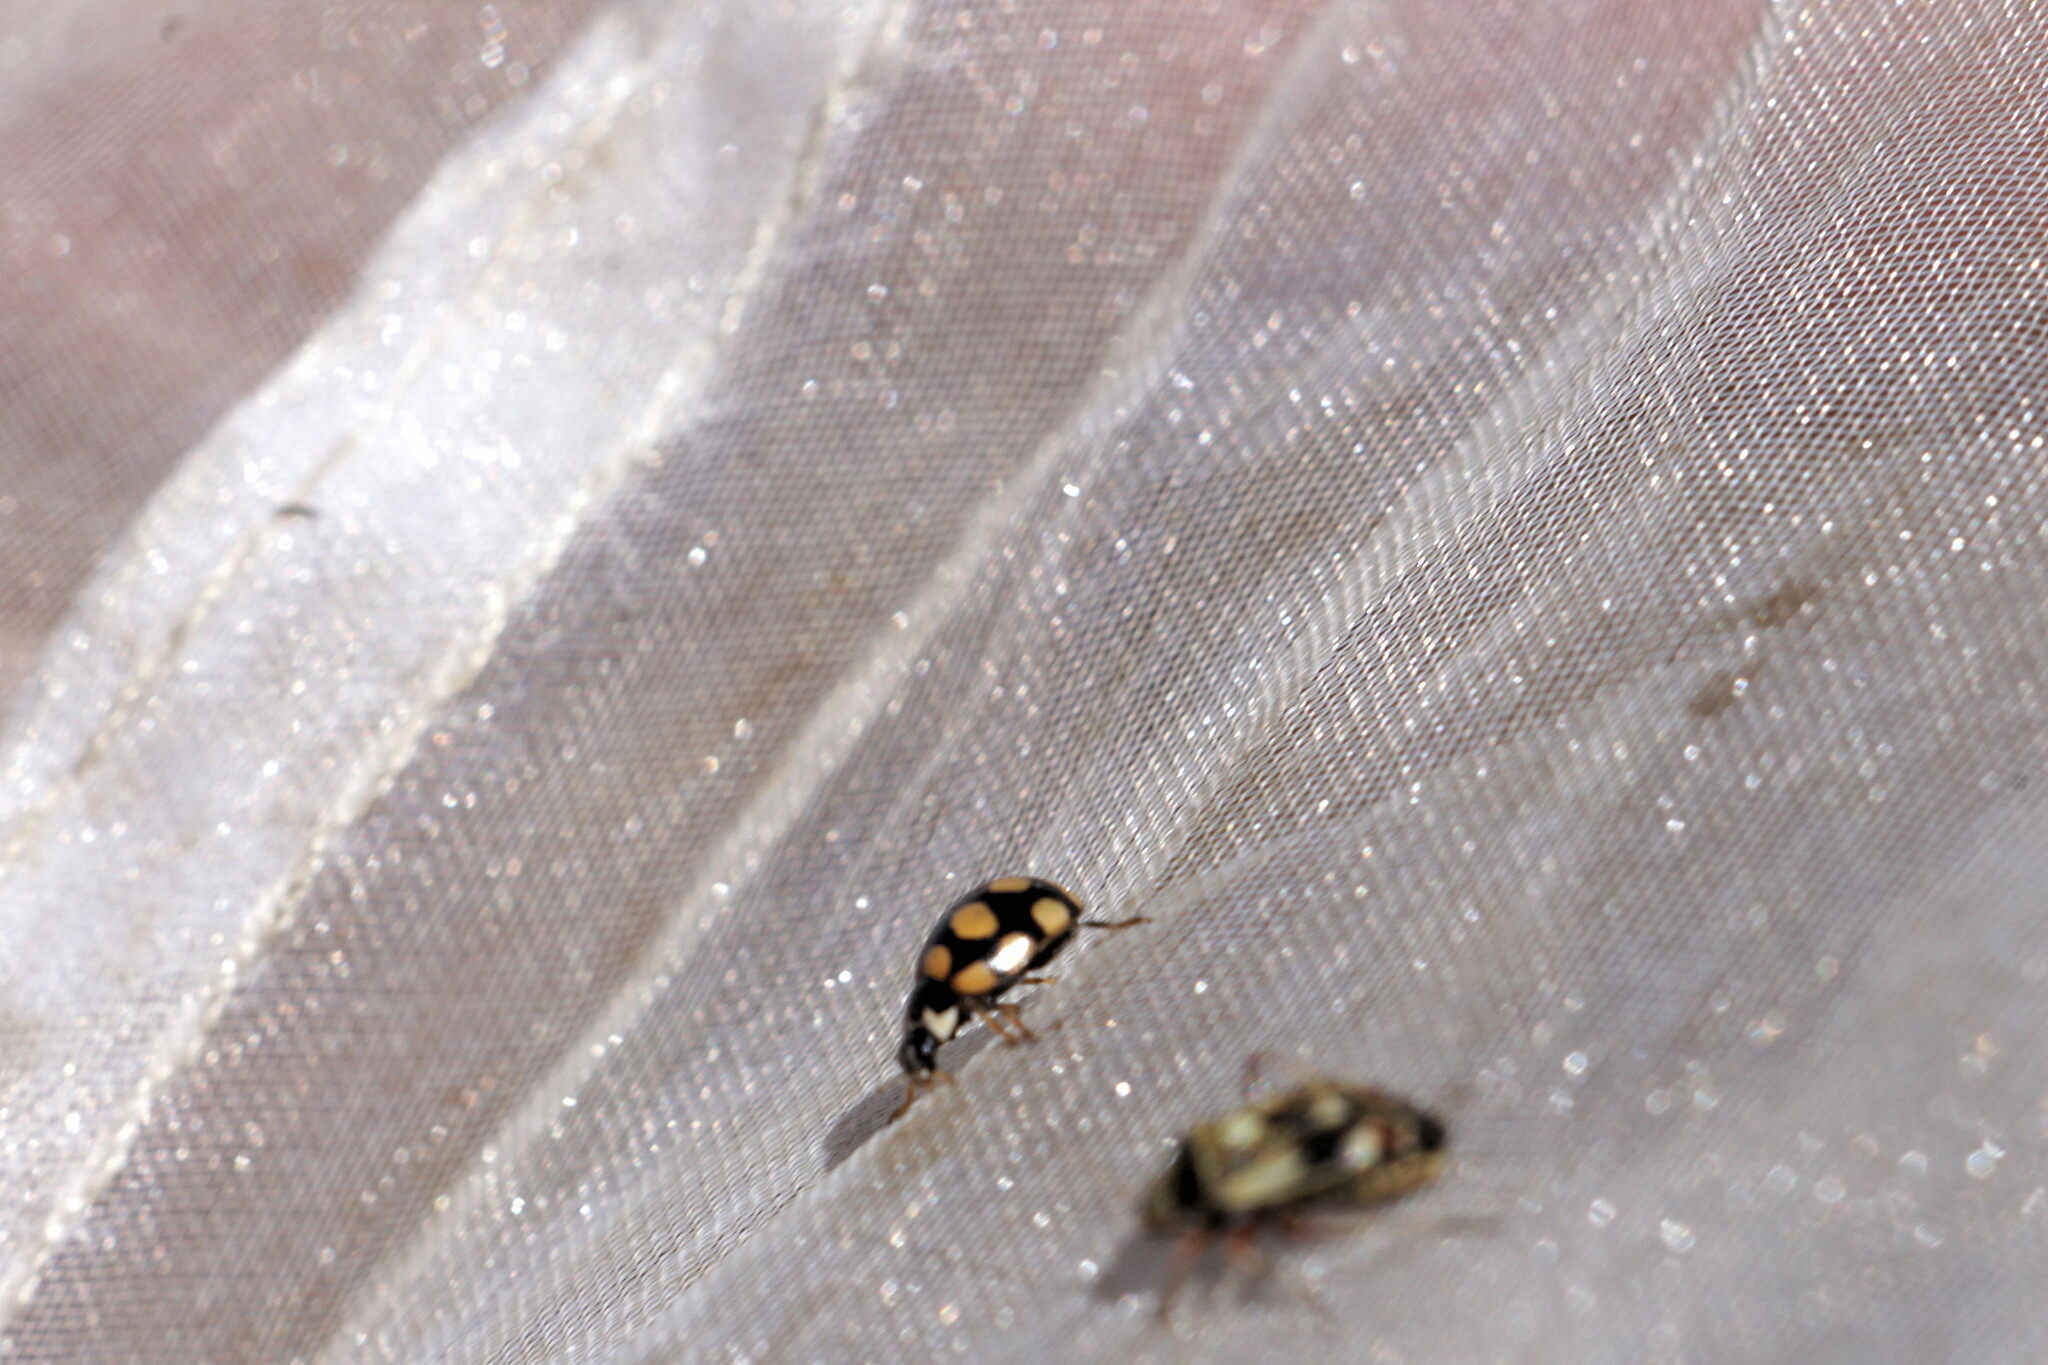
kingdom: Animalia
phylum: Arthropoda
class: Insecta
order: Coleoptera
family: Coccinellidae
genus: Coccinula
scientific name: Coccinula quatuordecimpustulata
